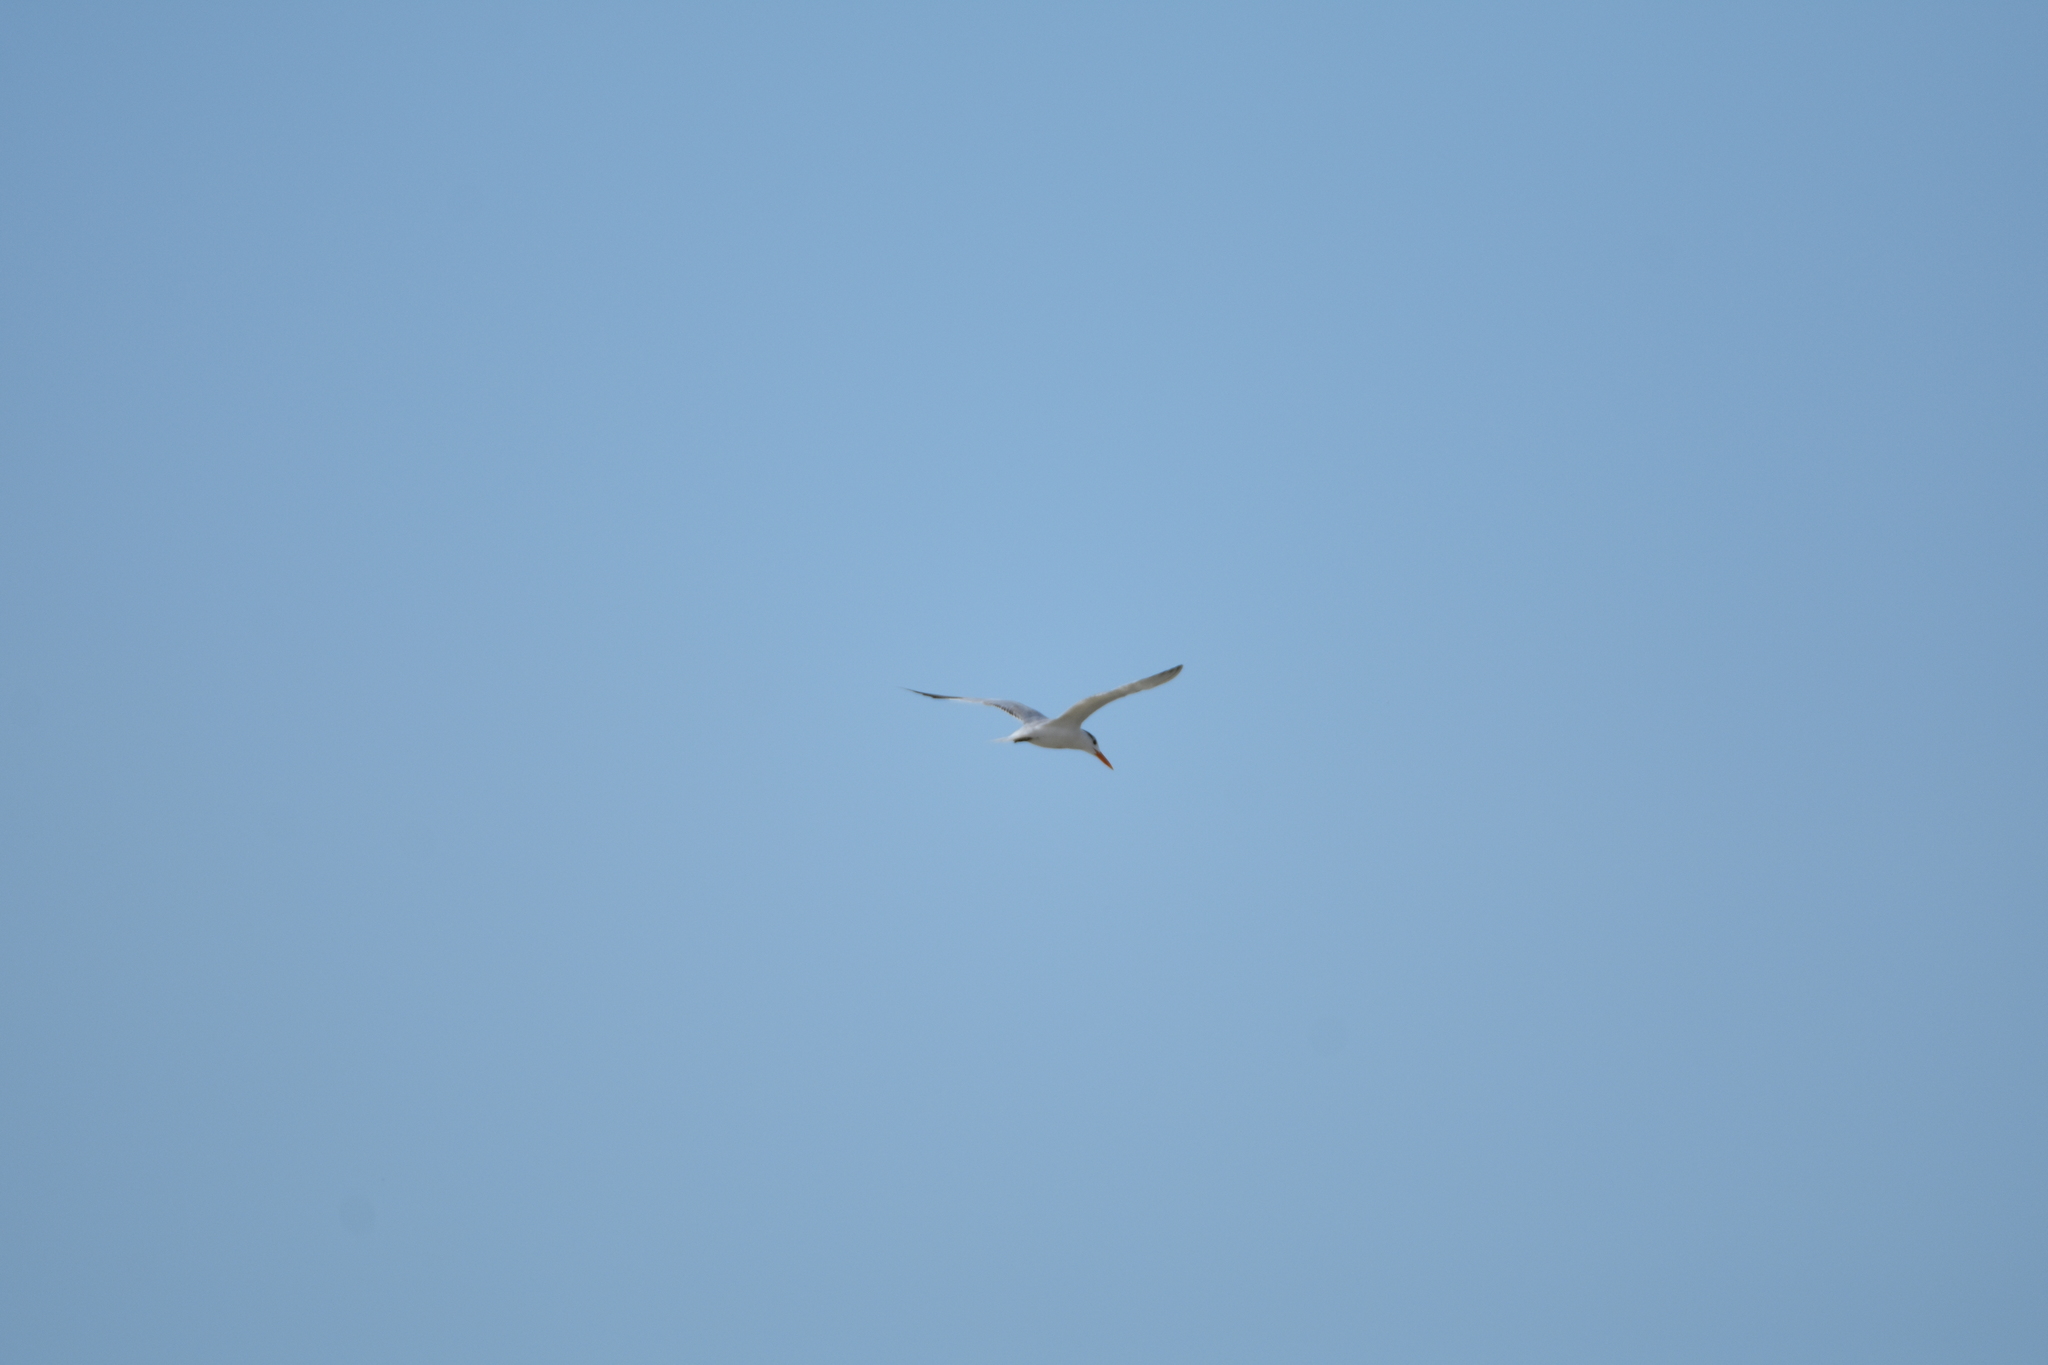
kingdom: Animalia
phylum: Chordata
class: Aves
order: Charadriiformes
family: Laridae
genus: Thalasseus
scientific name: Thalasseus maximus
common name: Royal tern
